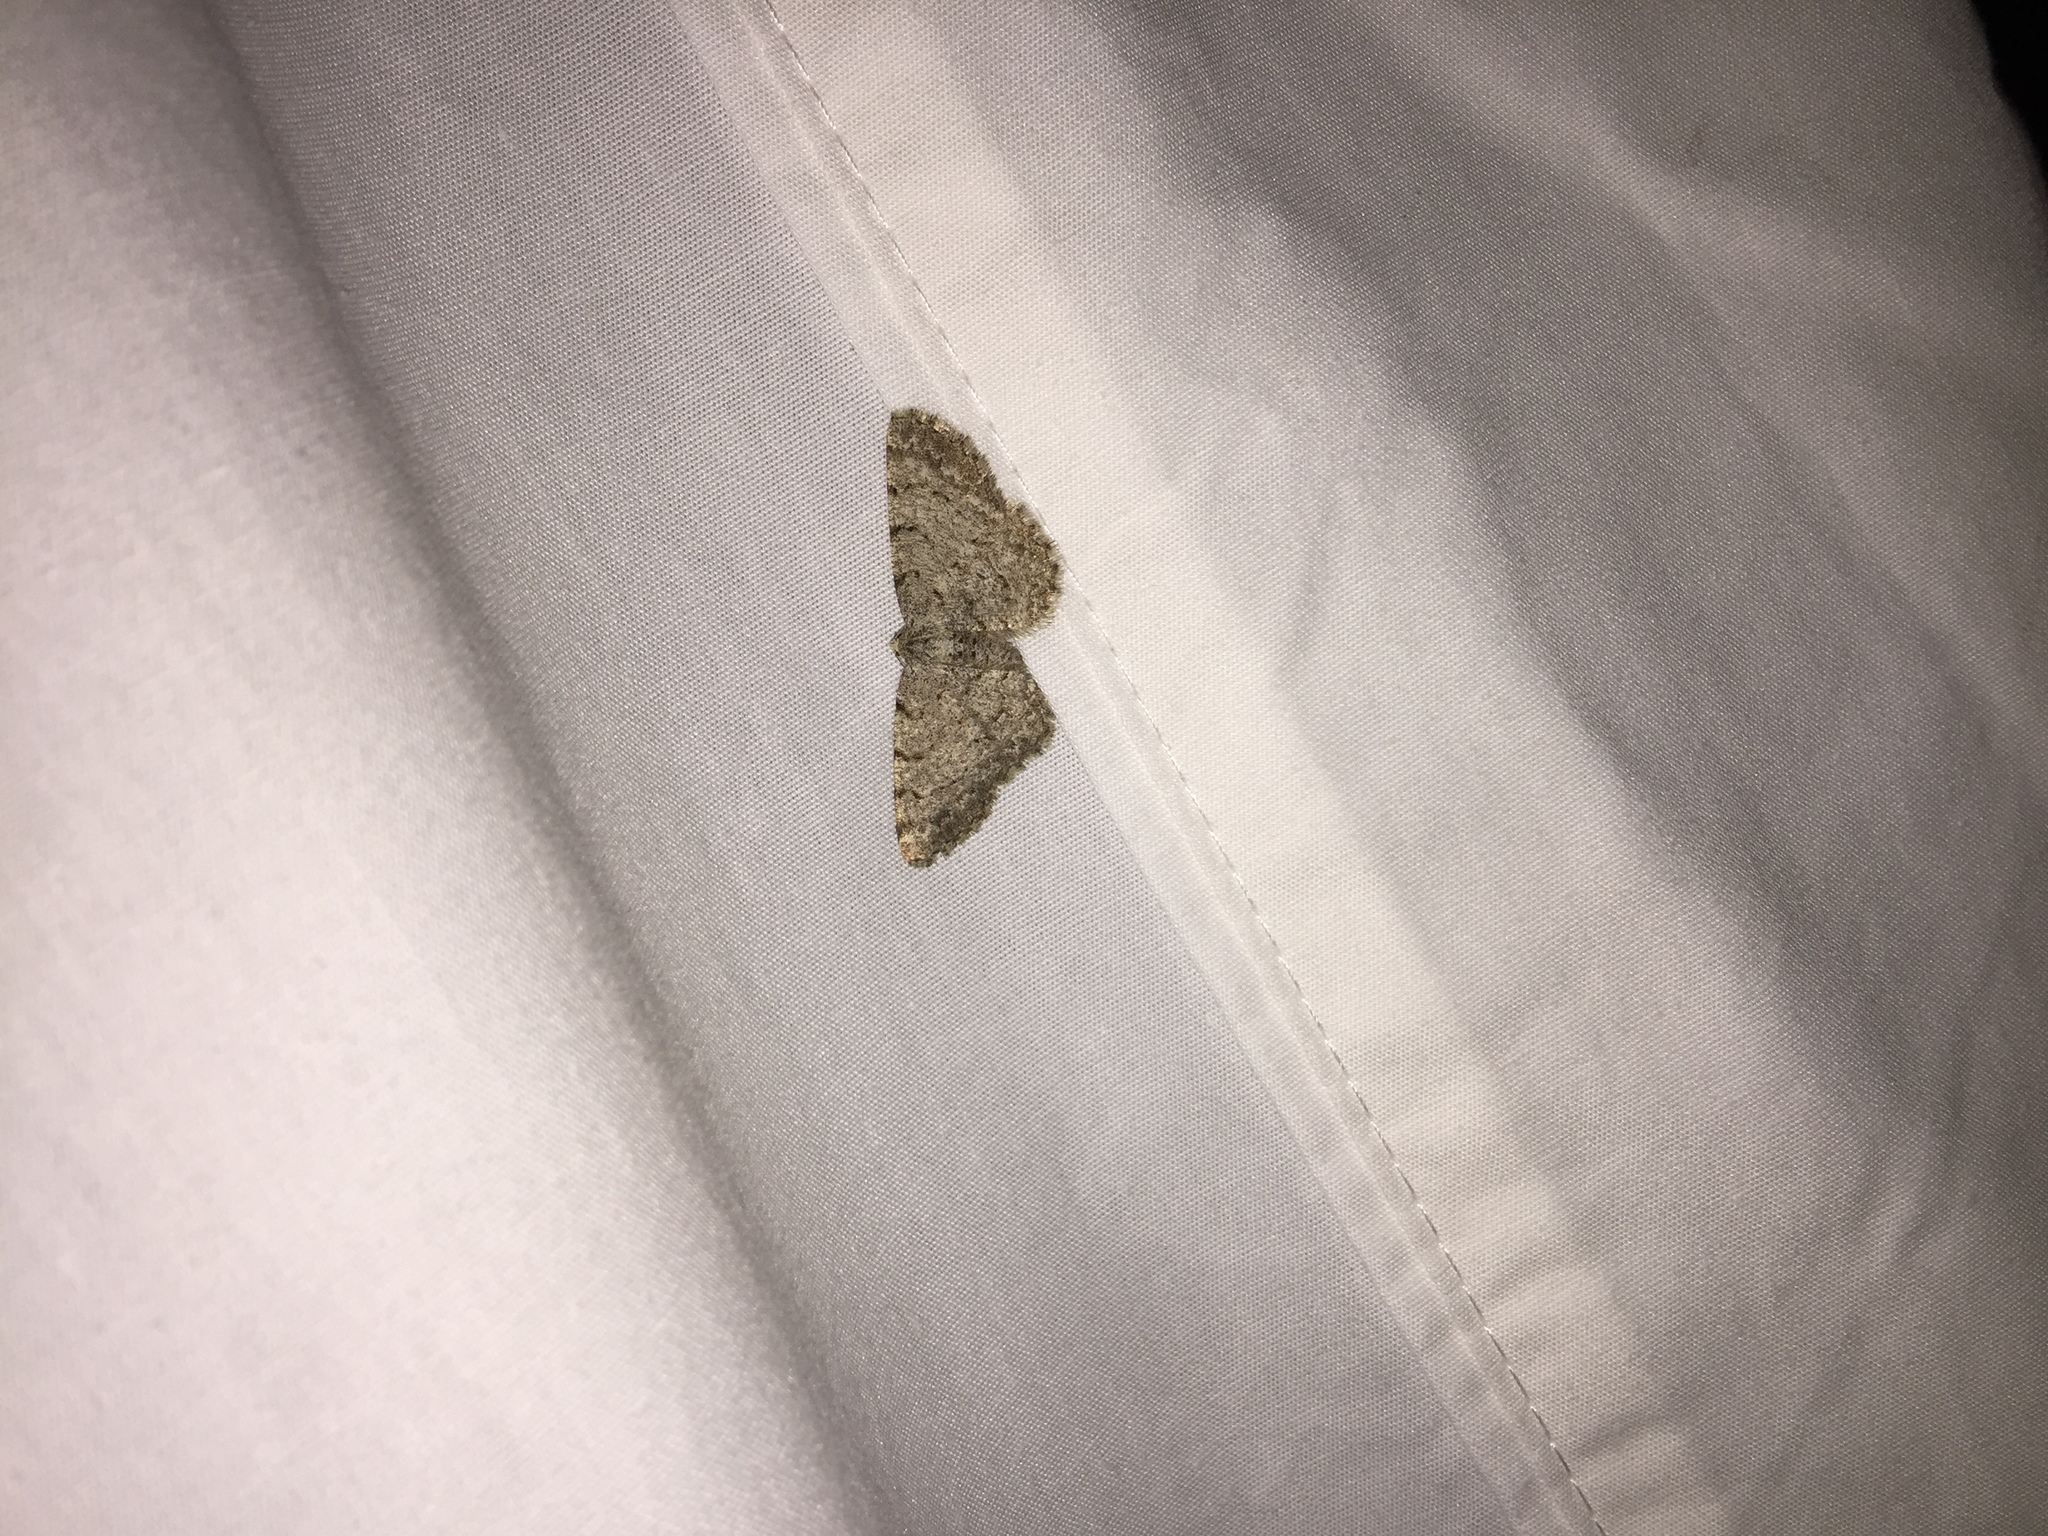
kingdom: Animalia
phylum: Arthropoda
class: Insecta
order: Lepidoptera
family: Geometridae
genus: Aethalura
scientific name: Aethalura intertexta
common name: Four-barred gray
